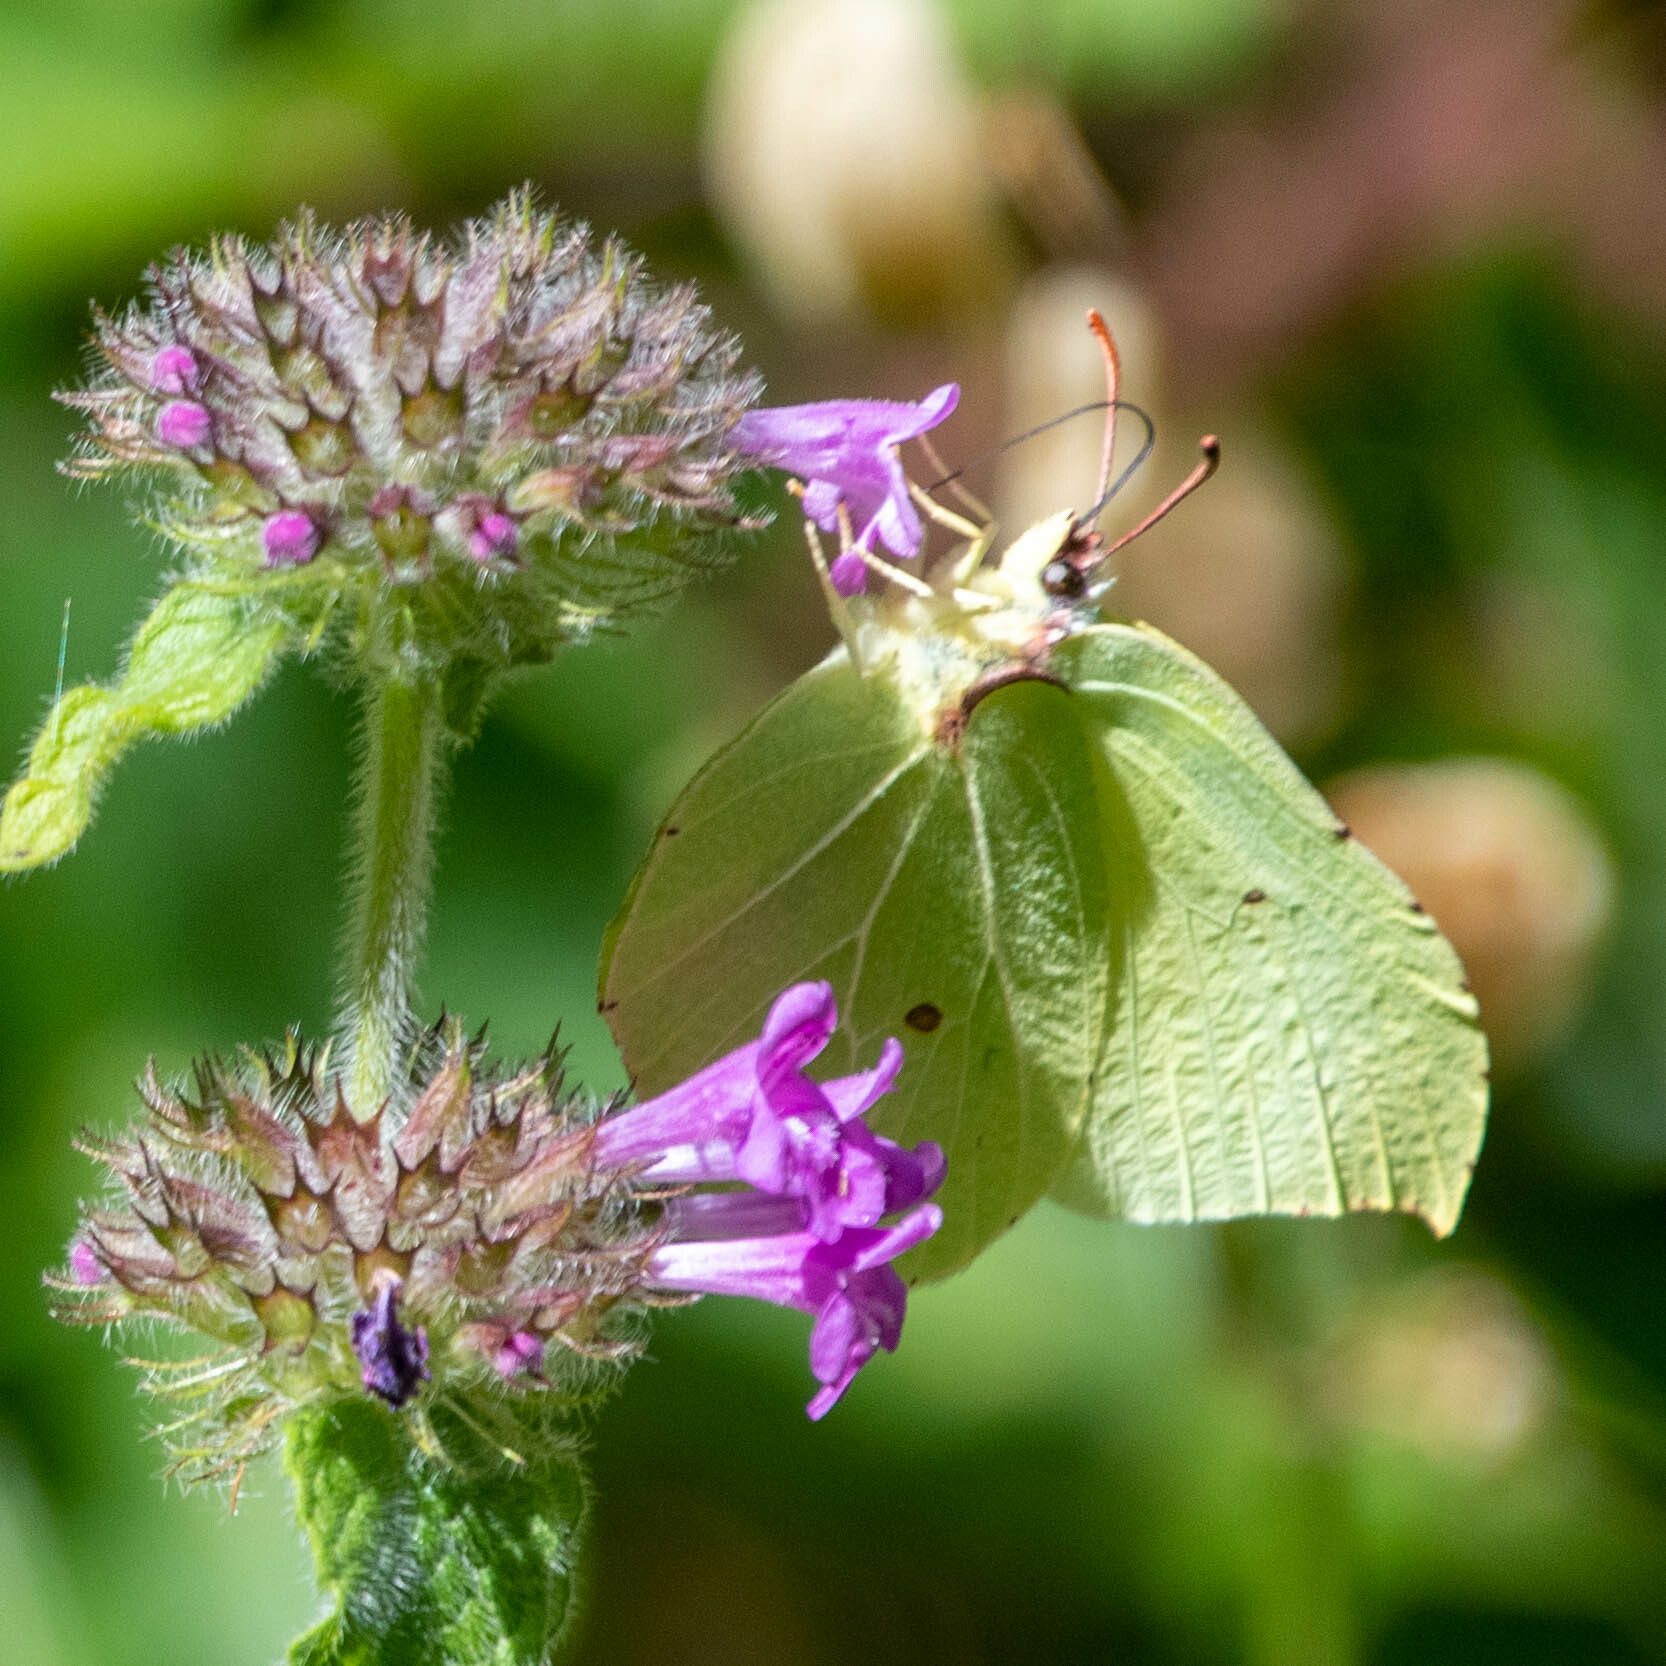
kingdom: Animalia
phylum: Arthropoda
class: Insecta
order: Lepidoptera
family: Pieridae
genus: Gonepteryx
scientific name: Gonepteryx rhamni
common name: Brimstone
